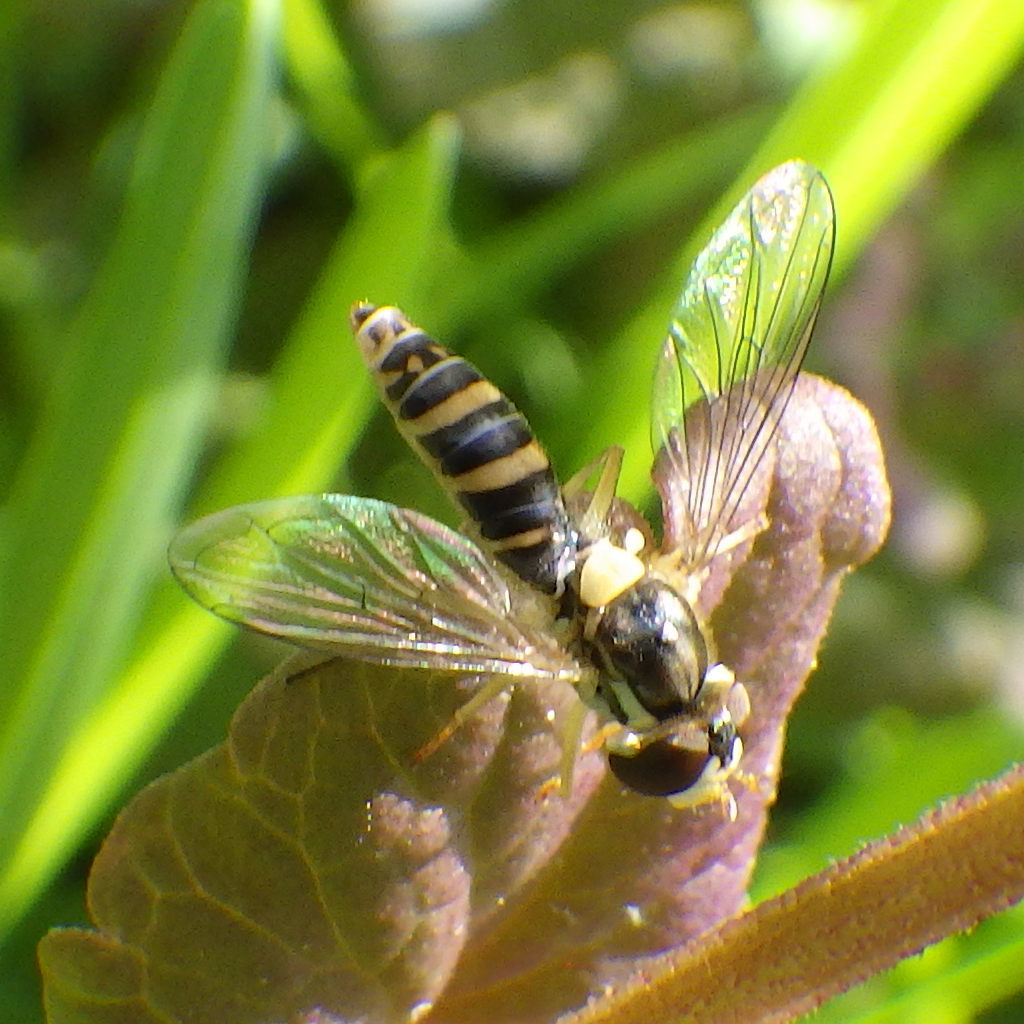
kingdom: Animalia
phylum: Arthropoda
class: Insecta
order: Diptera
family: Syrphidae
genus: Sphaerophoria
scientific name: Sphaerophoria
